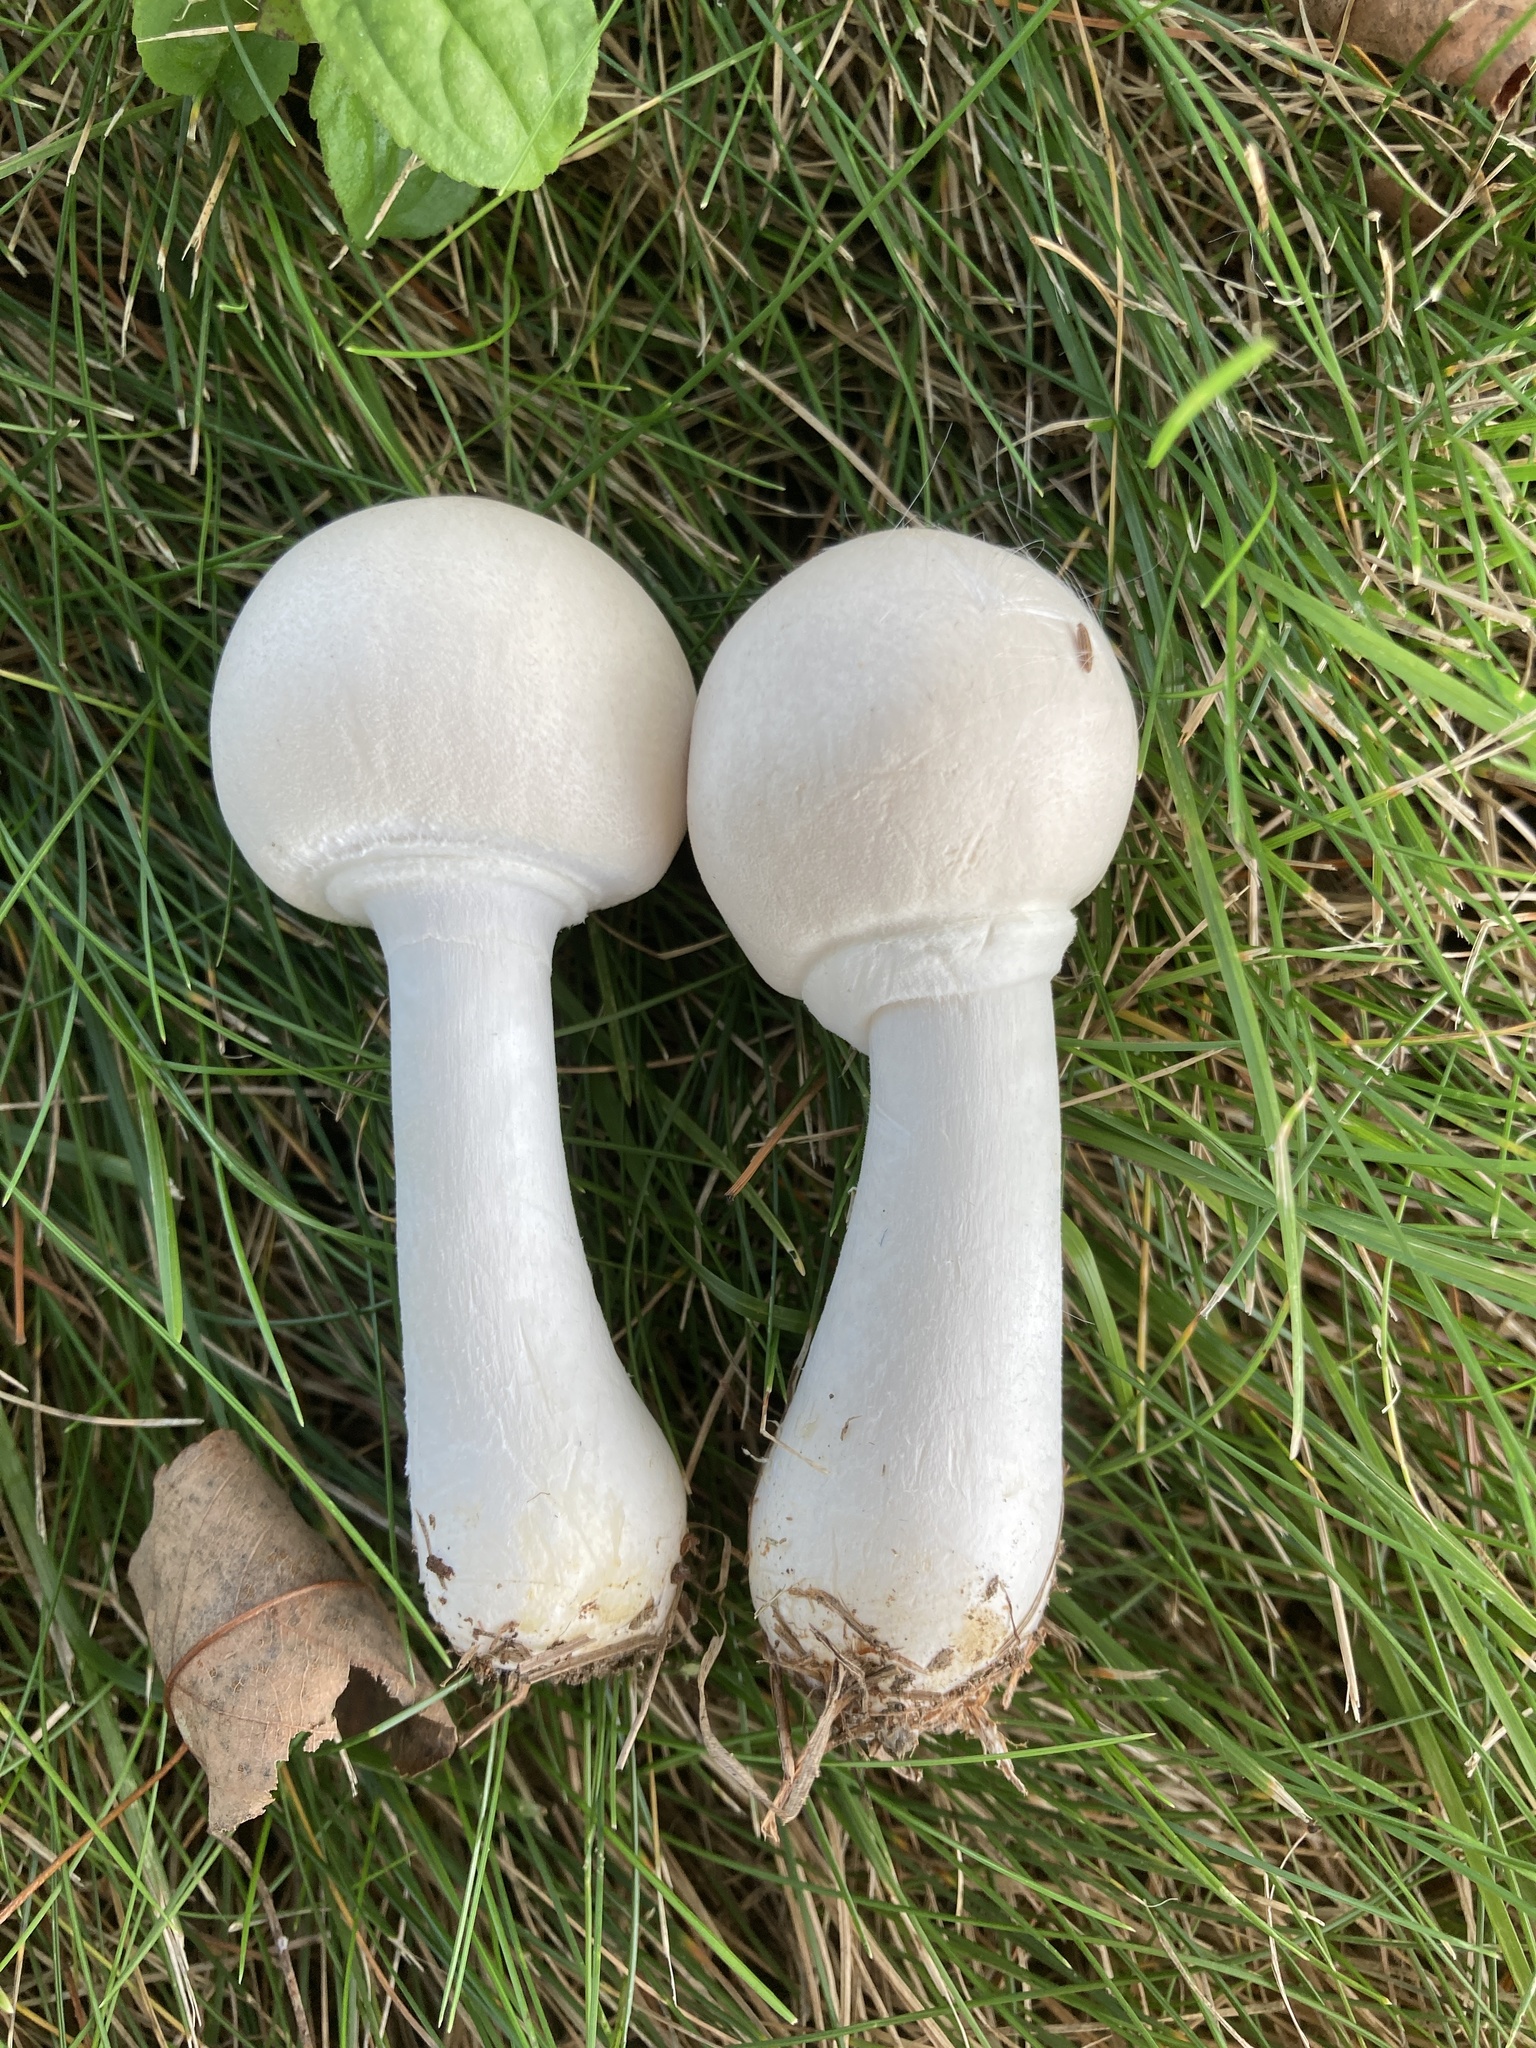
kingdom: Fungi
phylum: Basidiomycota
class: Agaricomycetes
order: Agaricales
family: Agaricaceae
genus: Leucoagaricus
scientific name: Leucoagaricus leucothites
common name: White dapperling
